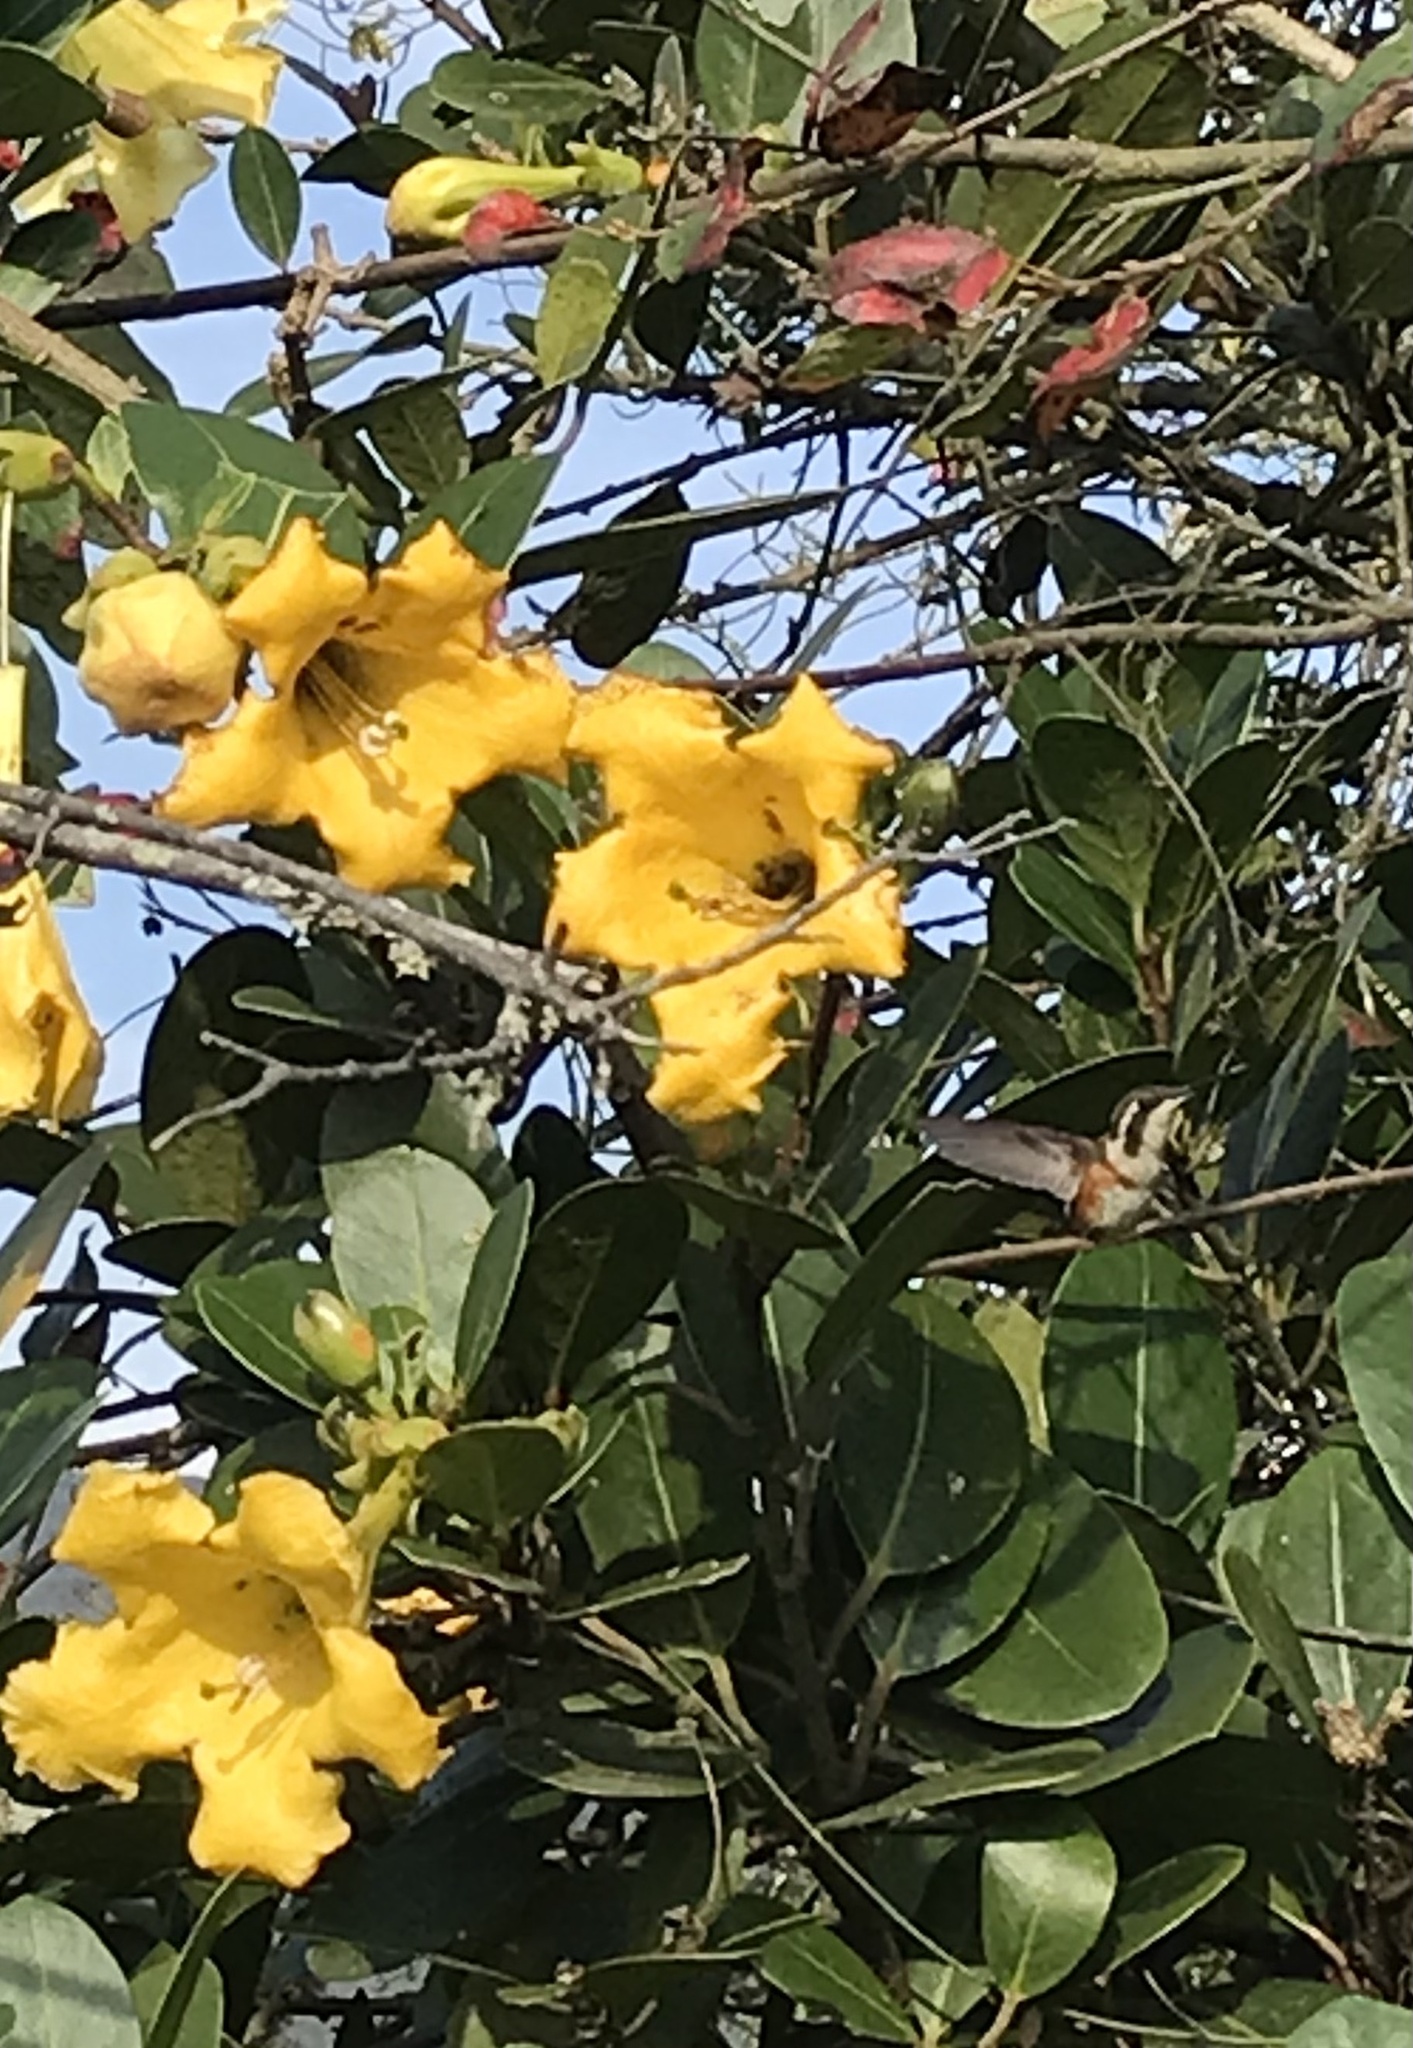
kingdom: Animalia
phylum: Chordata
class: Aves
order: Apodiformes
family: Trochilidae
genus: Chaetocercus
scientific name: Chaetocercus mulsant
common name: White-bellied woodstar
